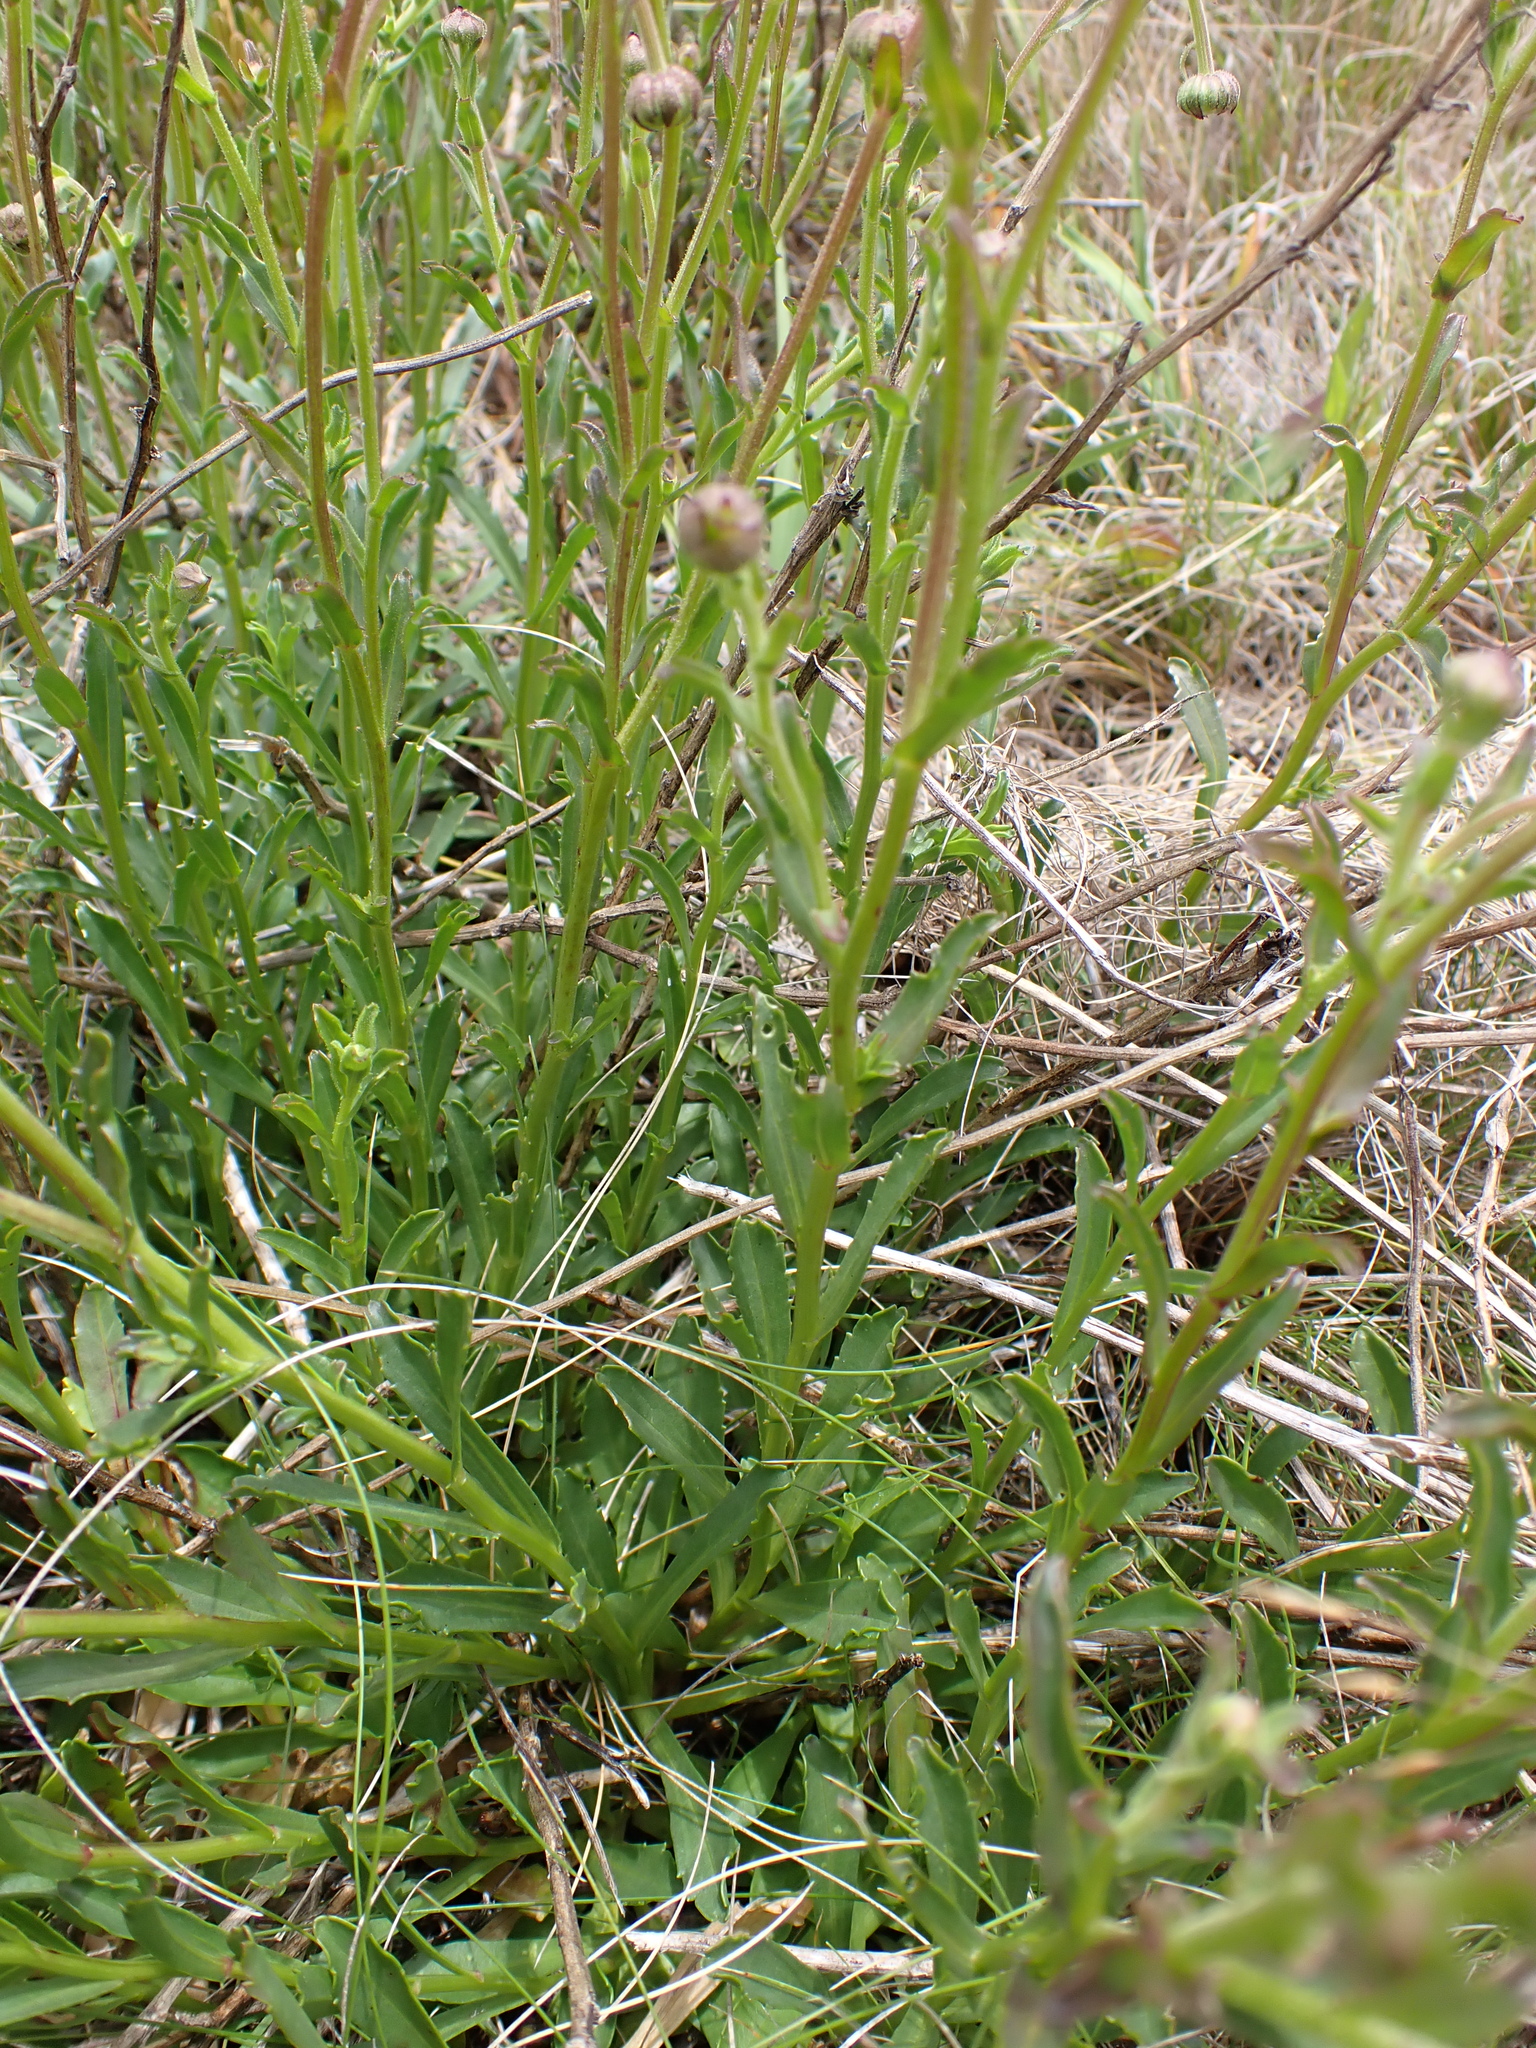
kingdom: Plantae
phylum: Tracheophyta
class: Magnoliopsida
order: Asterales
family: Asteraceae
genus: Brachyscome
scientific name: Brachyscome aculeata
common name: Hill daisy
